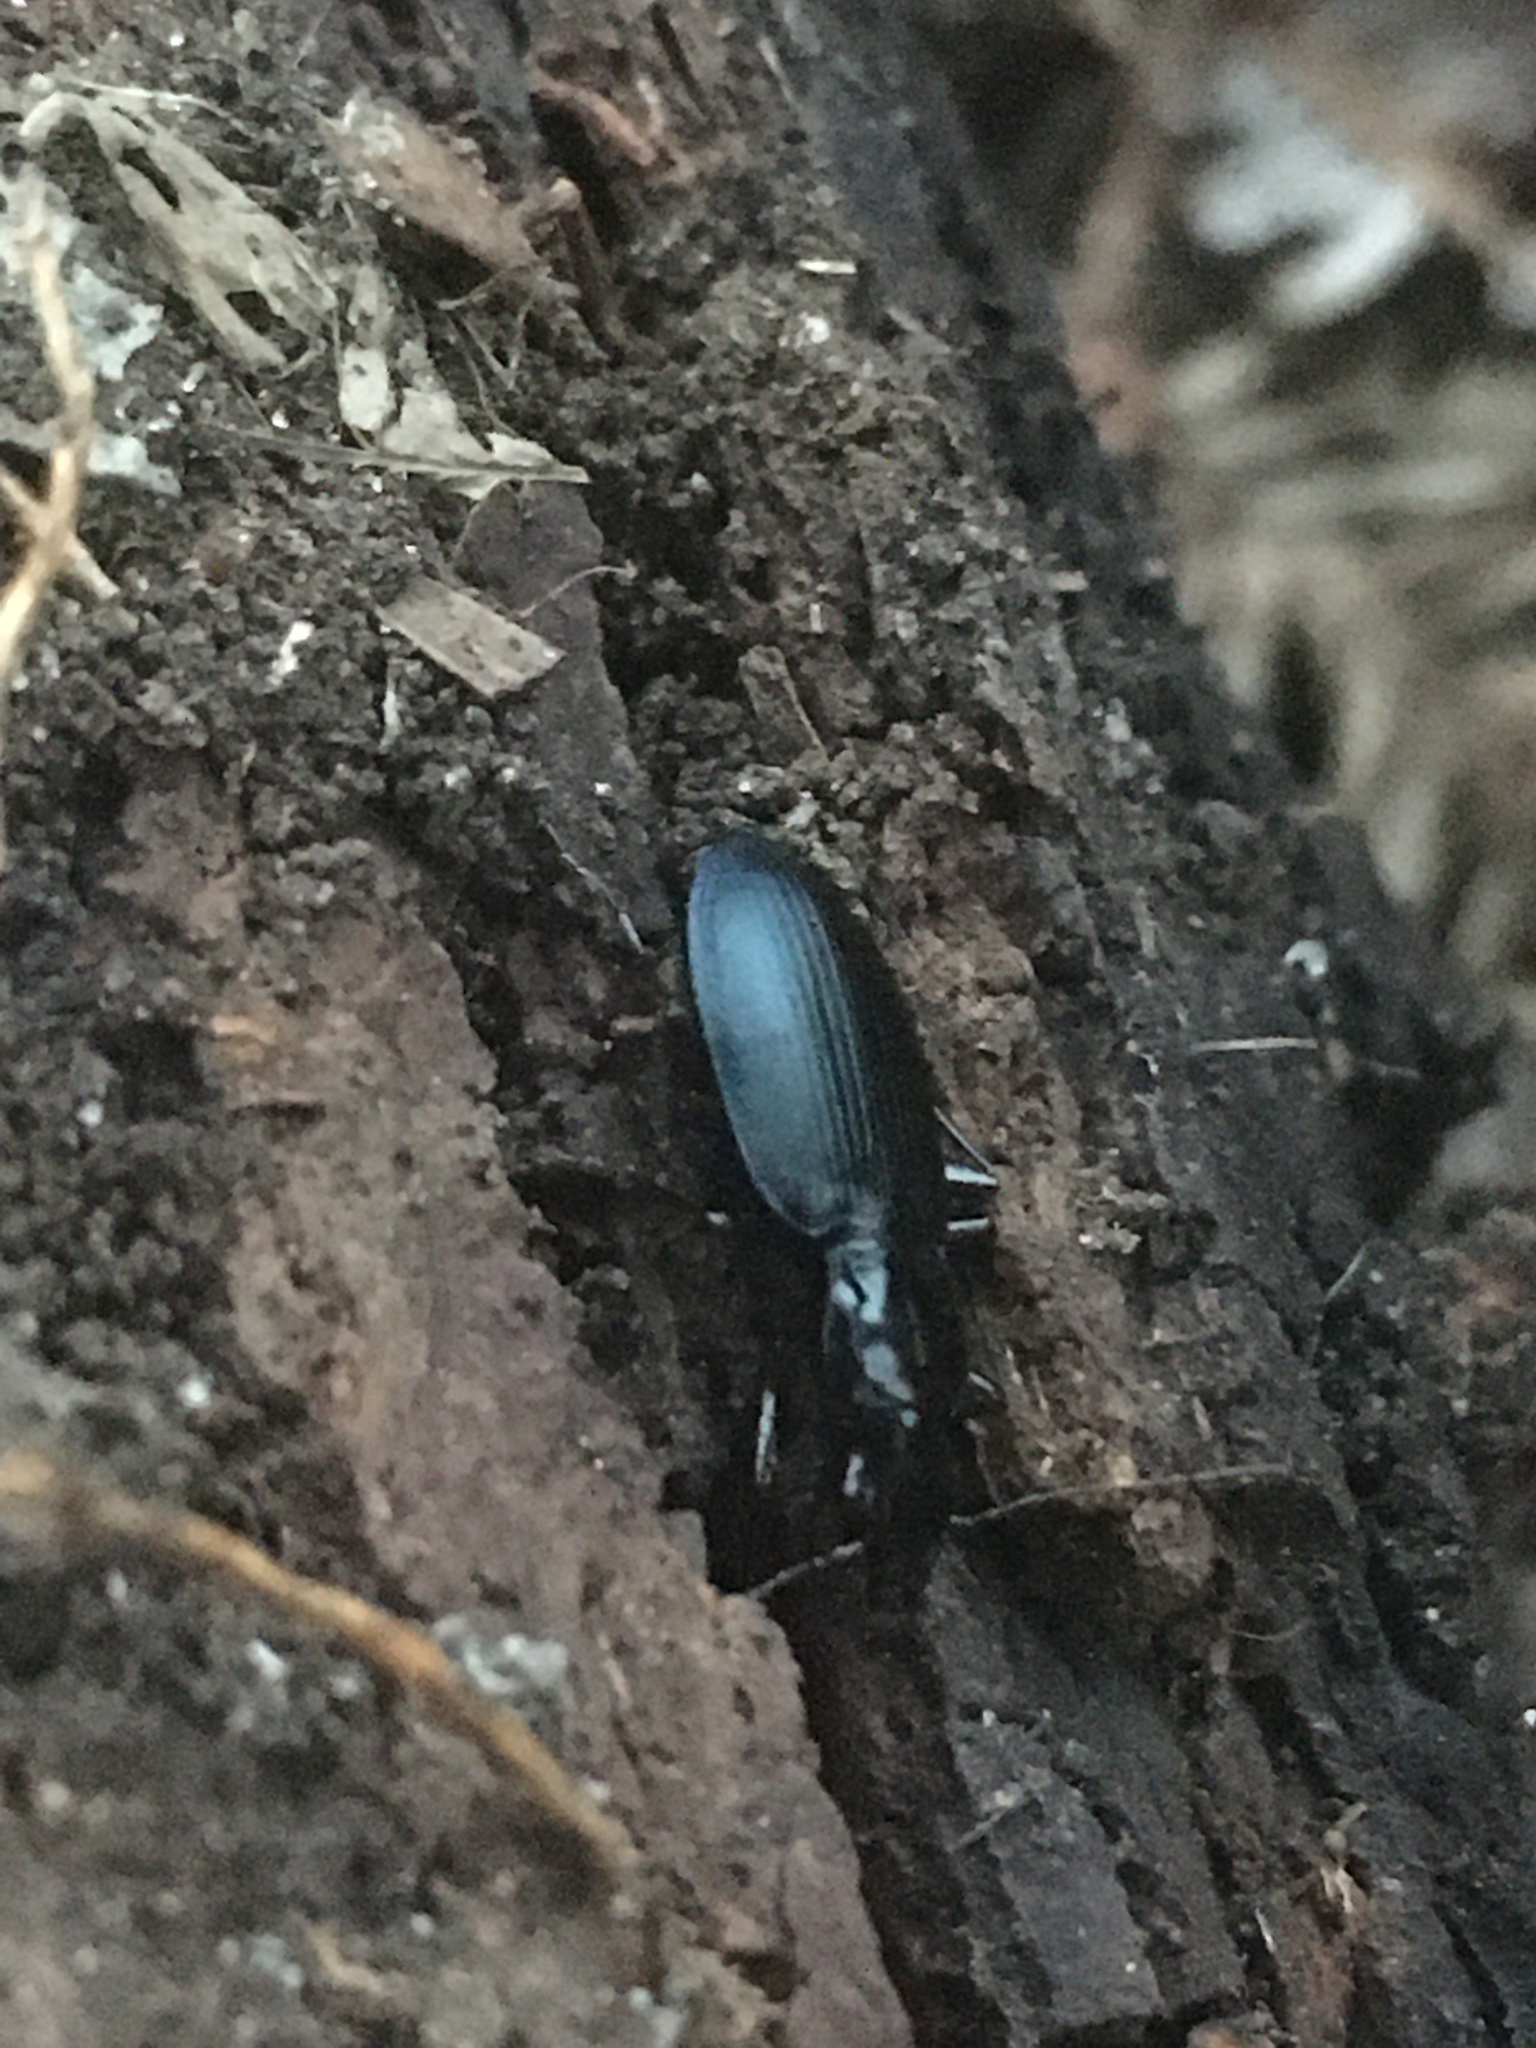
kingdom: Animalia
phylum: Arthropoda
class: Insecta
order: Coleoptera
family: Carabidae
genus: Laemostenus
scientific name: Laemostenus complanatus
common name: Cosmopolitan ground beetle
